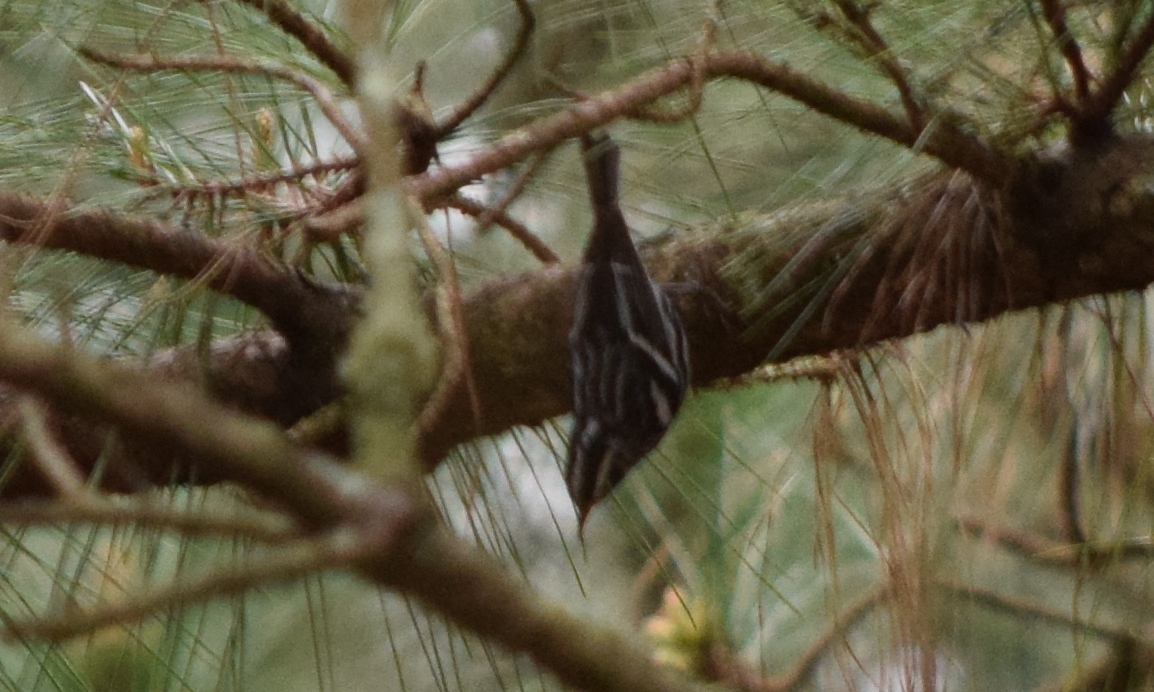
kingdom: Animalia
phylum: Chordata
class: Aves
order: Passeriformes
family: Parulidae
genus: Mniotilta
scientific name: Mniotilta varia
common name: Black-and-white warbler
